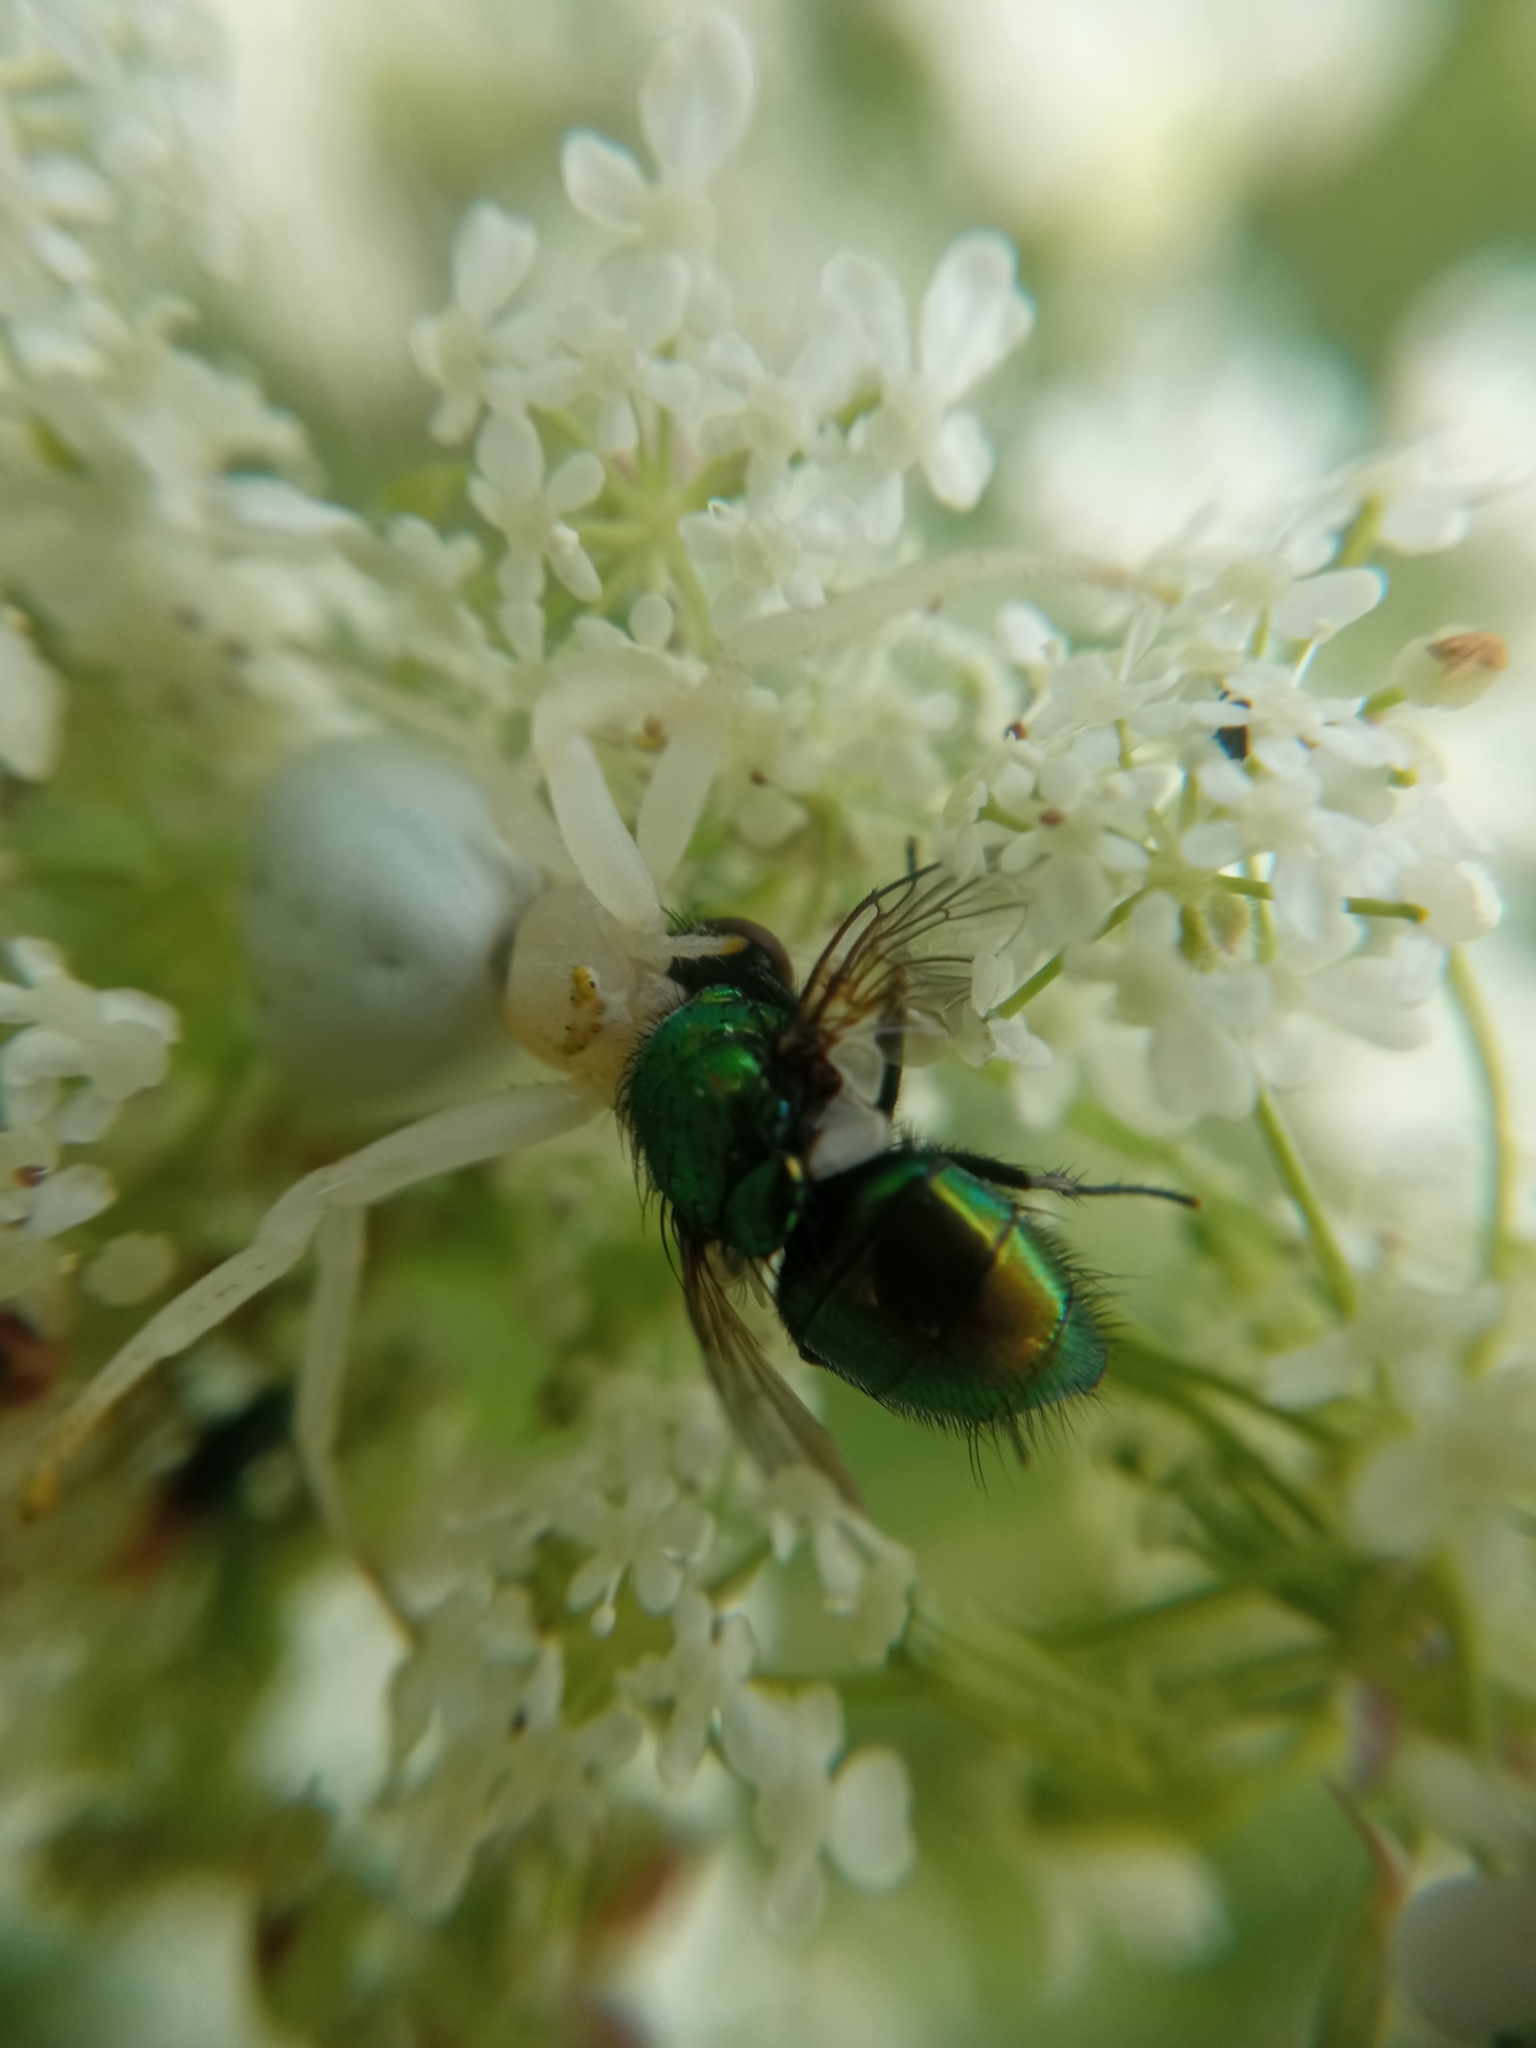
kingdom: Animalia
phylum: Arthropoda
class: Arachnida
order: Araneae
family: Thomisidae
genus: Misumena
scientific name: Misumena vatia
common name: Goldenrod crab spider
